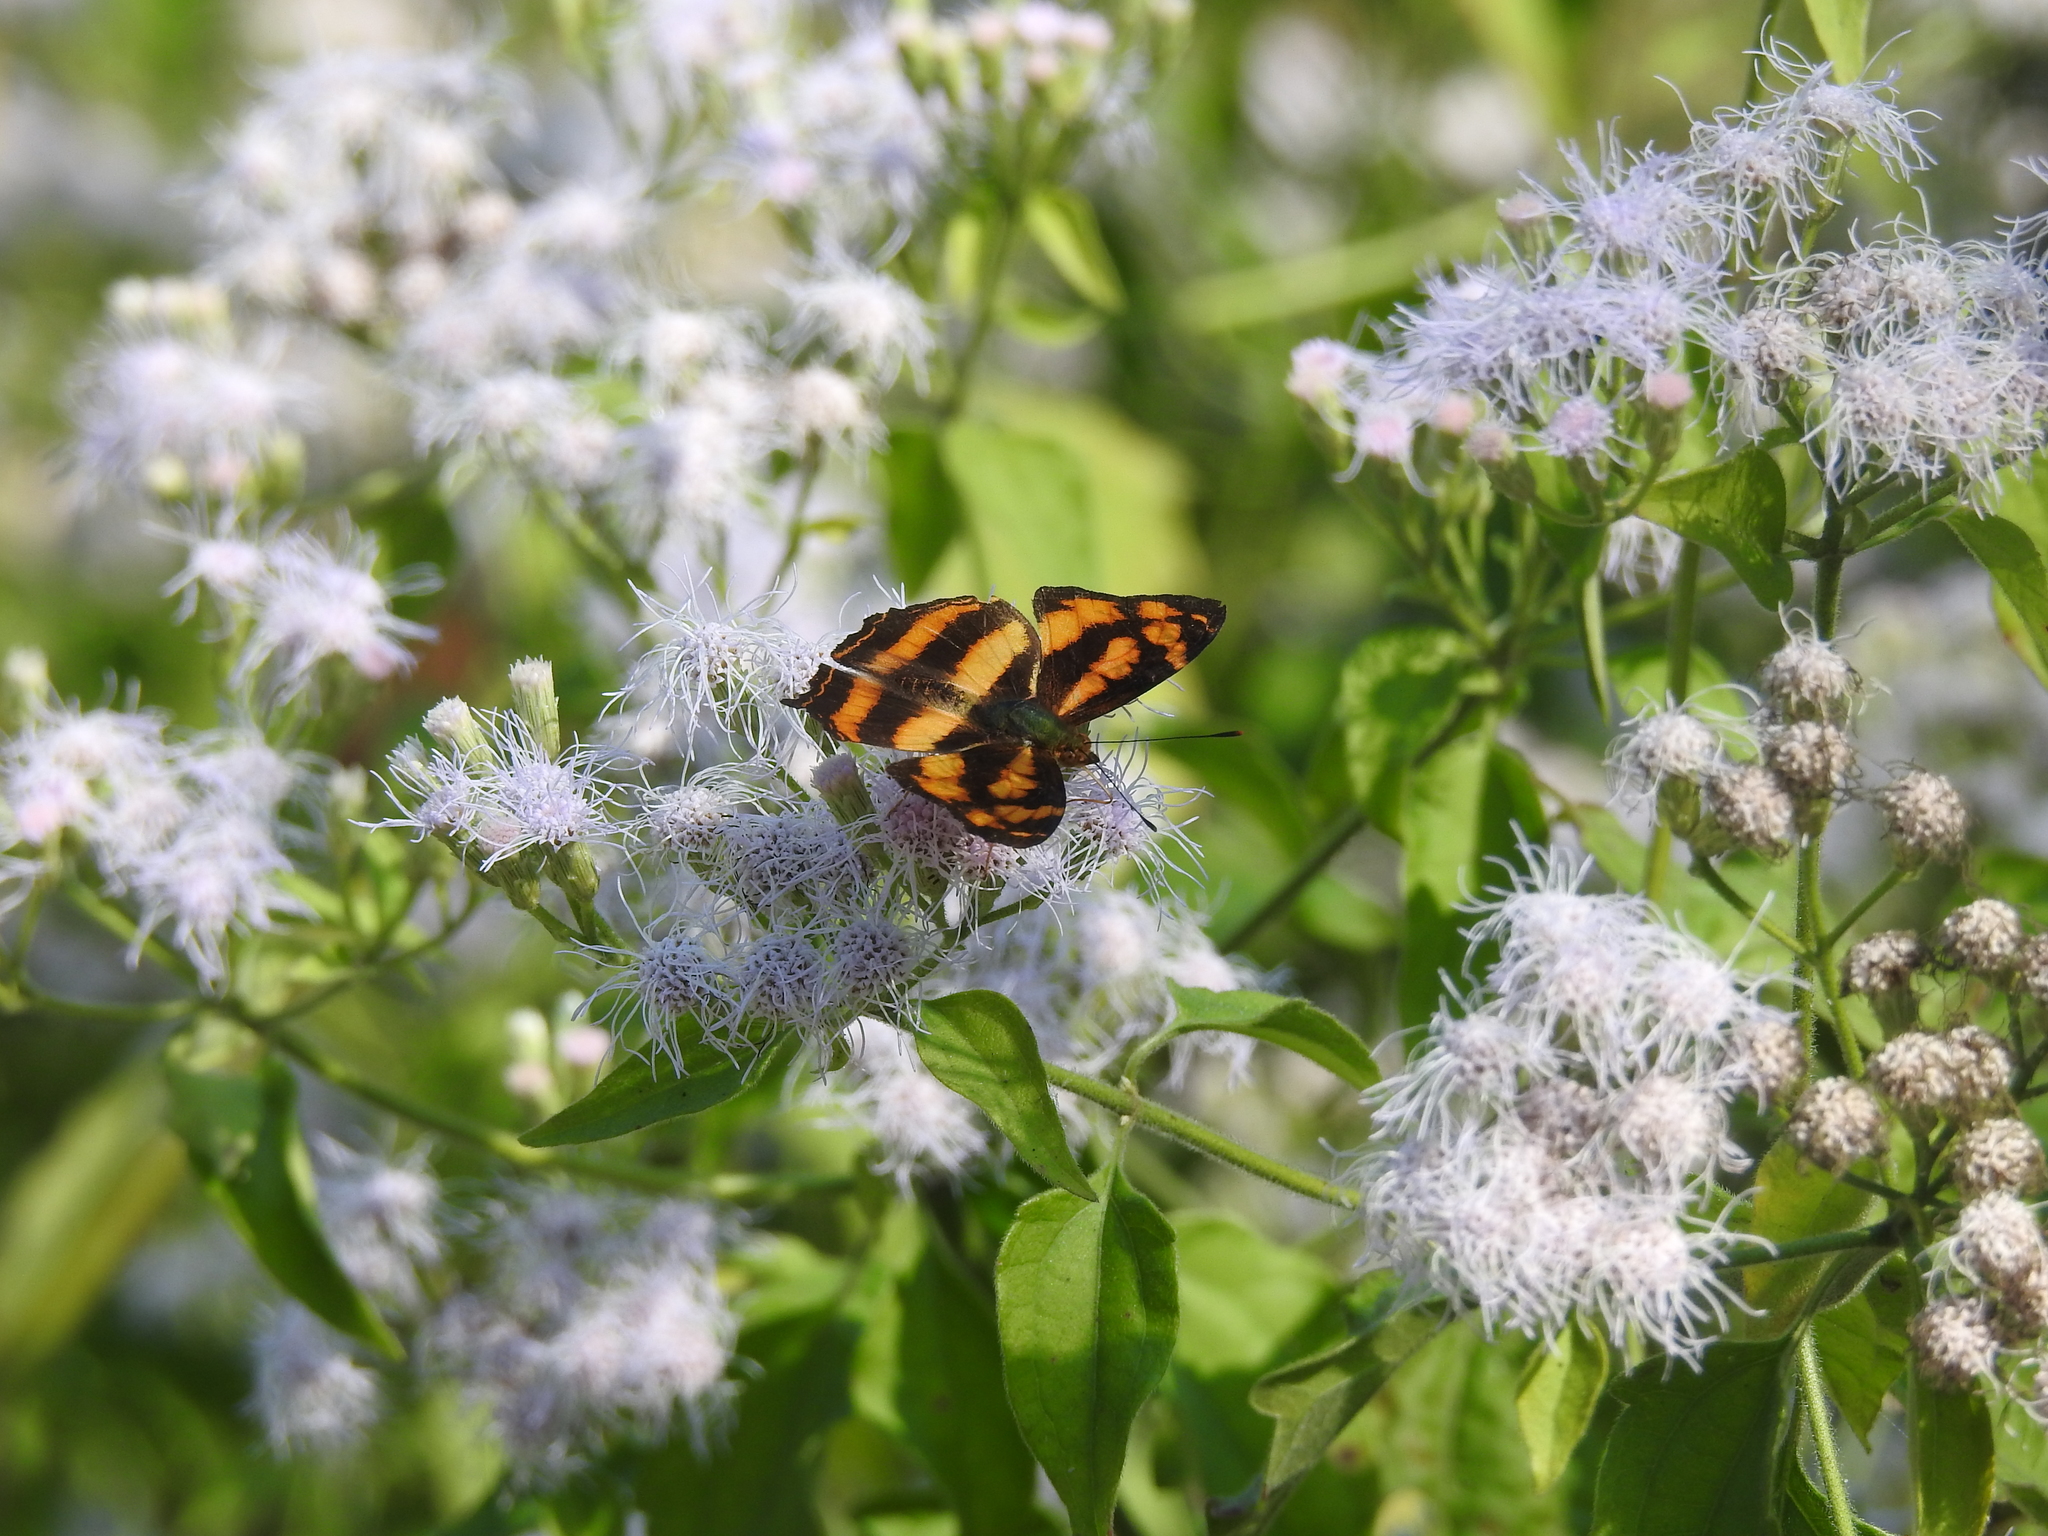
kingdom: Animalia
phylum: Arthropoda
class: Insecta
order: Lepidoptera
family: Nymphalidae
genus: Symbrenthia
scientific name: Symbrenthia hypselis
